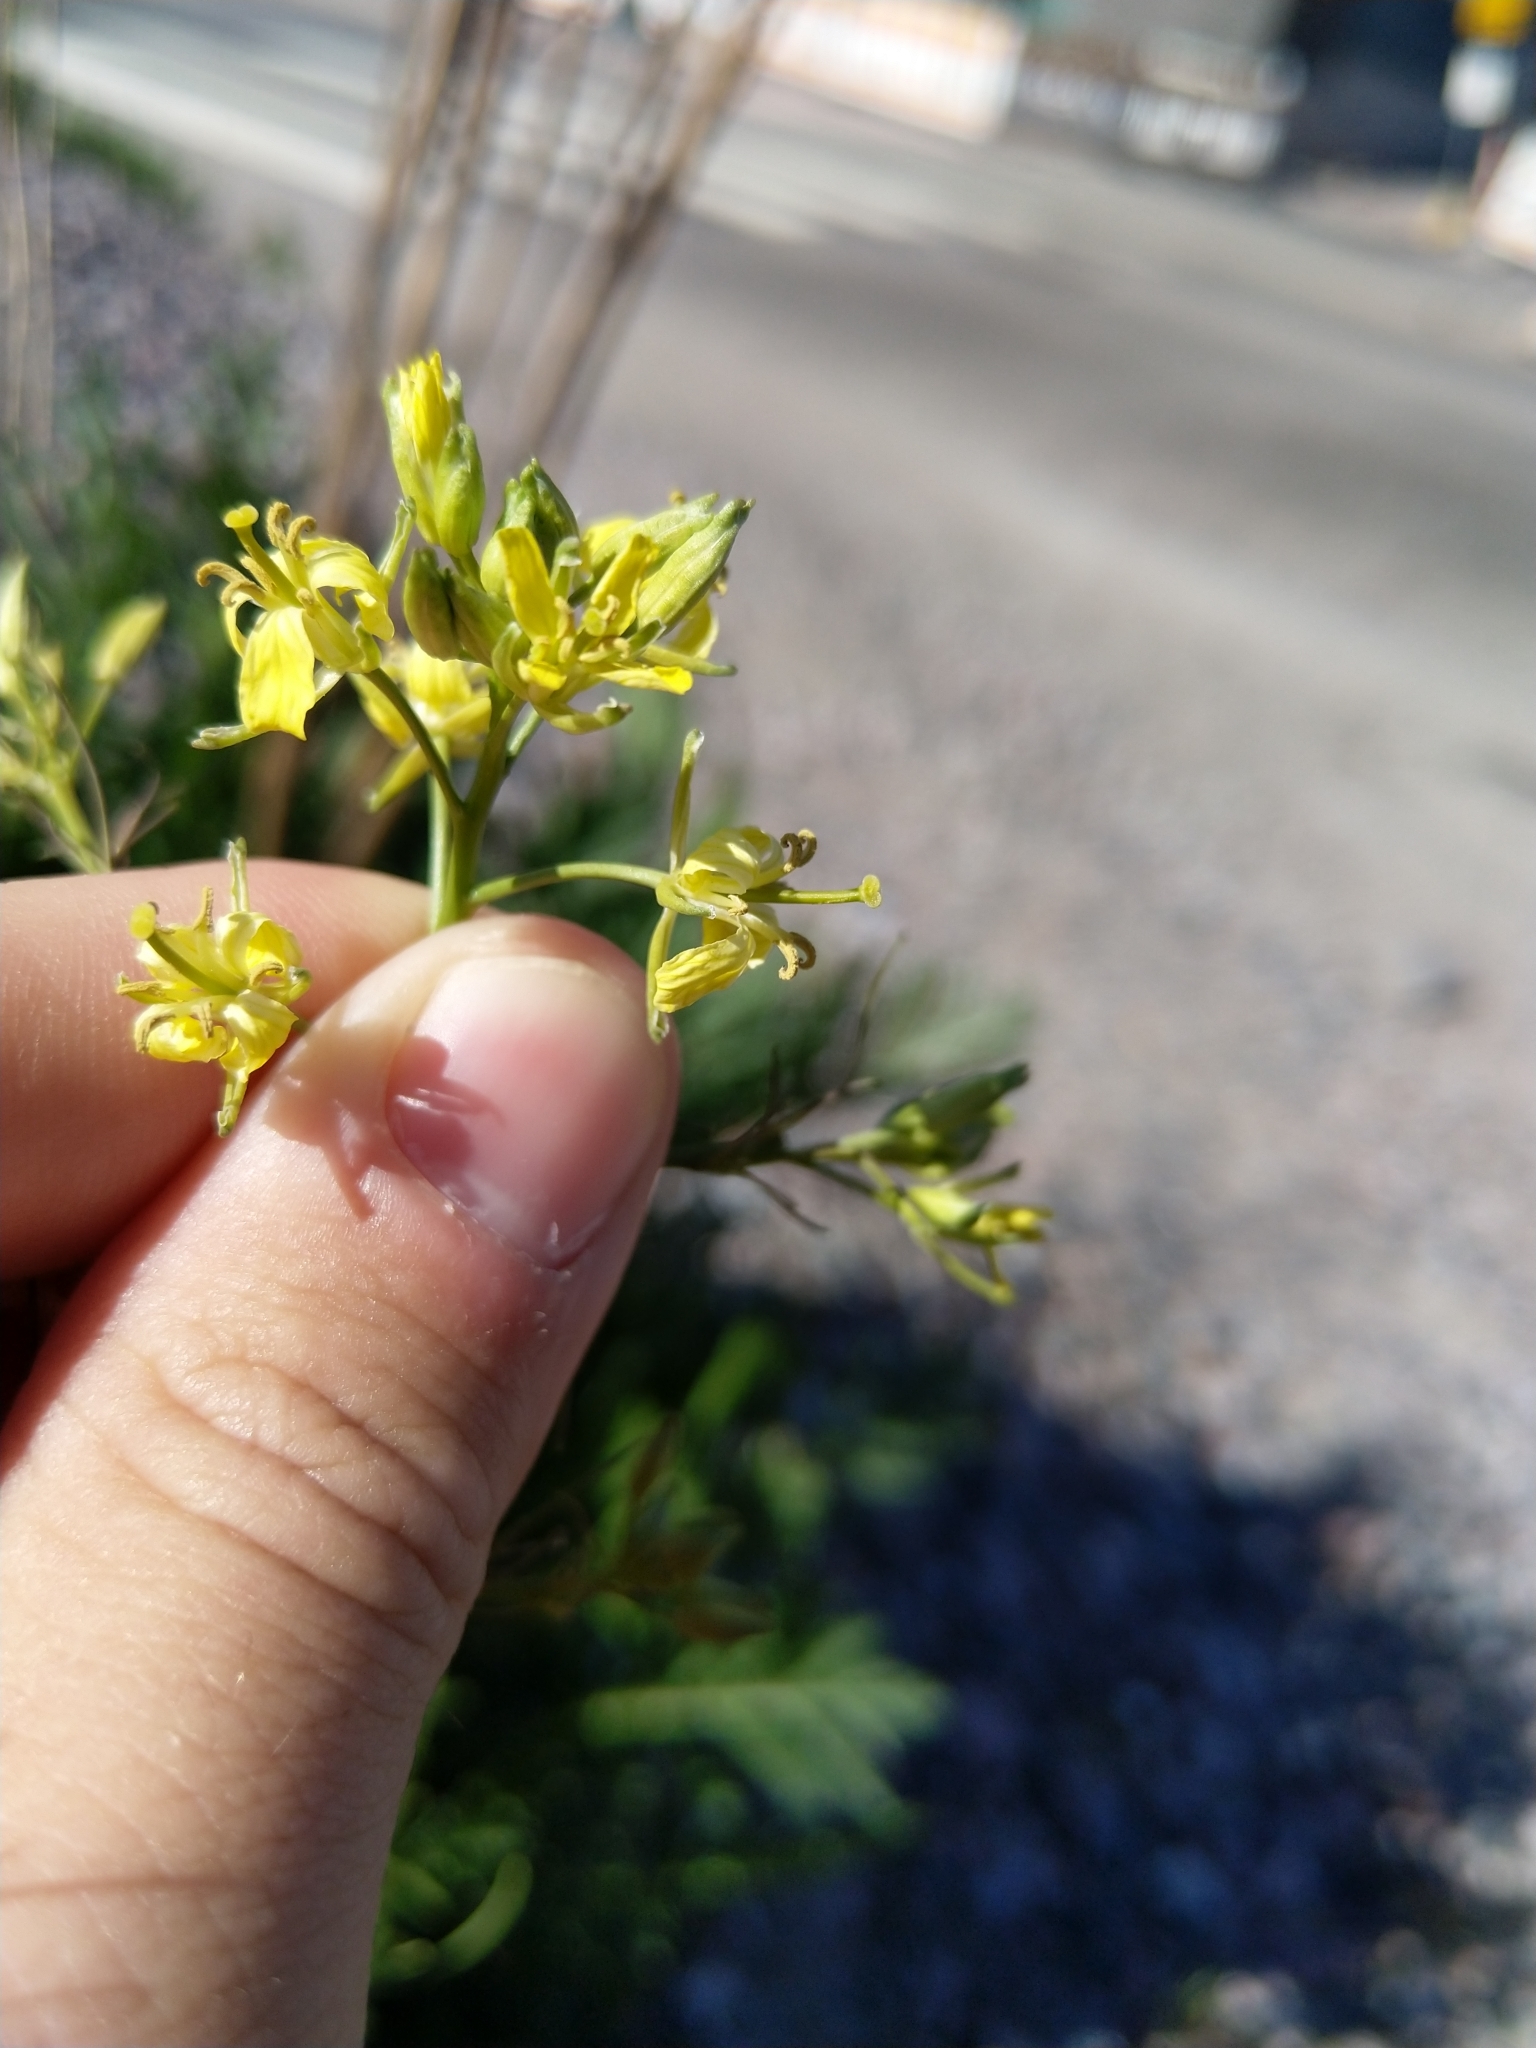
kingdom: Plantae
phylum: Tracheophyta
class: Magnoliopsida
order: Brassicales
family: Brassicaceae
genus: Sisymbrium
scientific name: Sisymbrium altissimum
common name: Tall rocket
